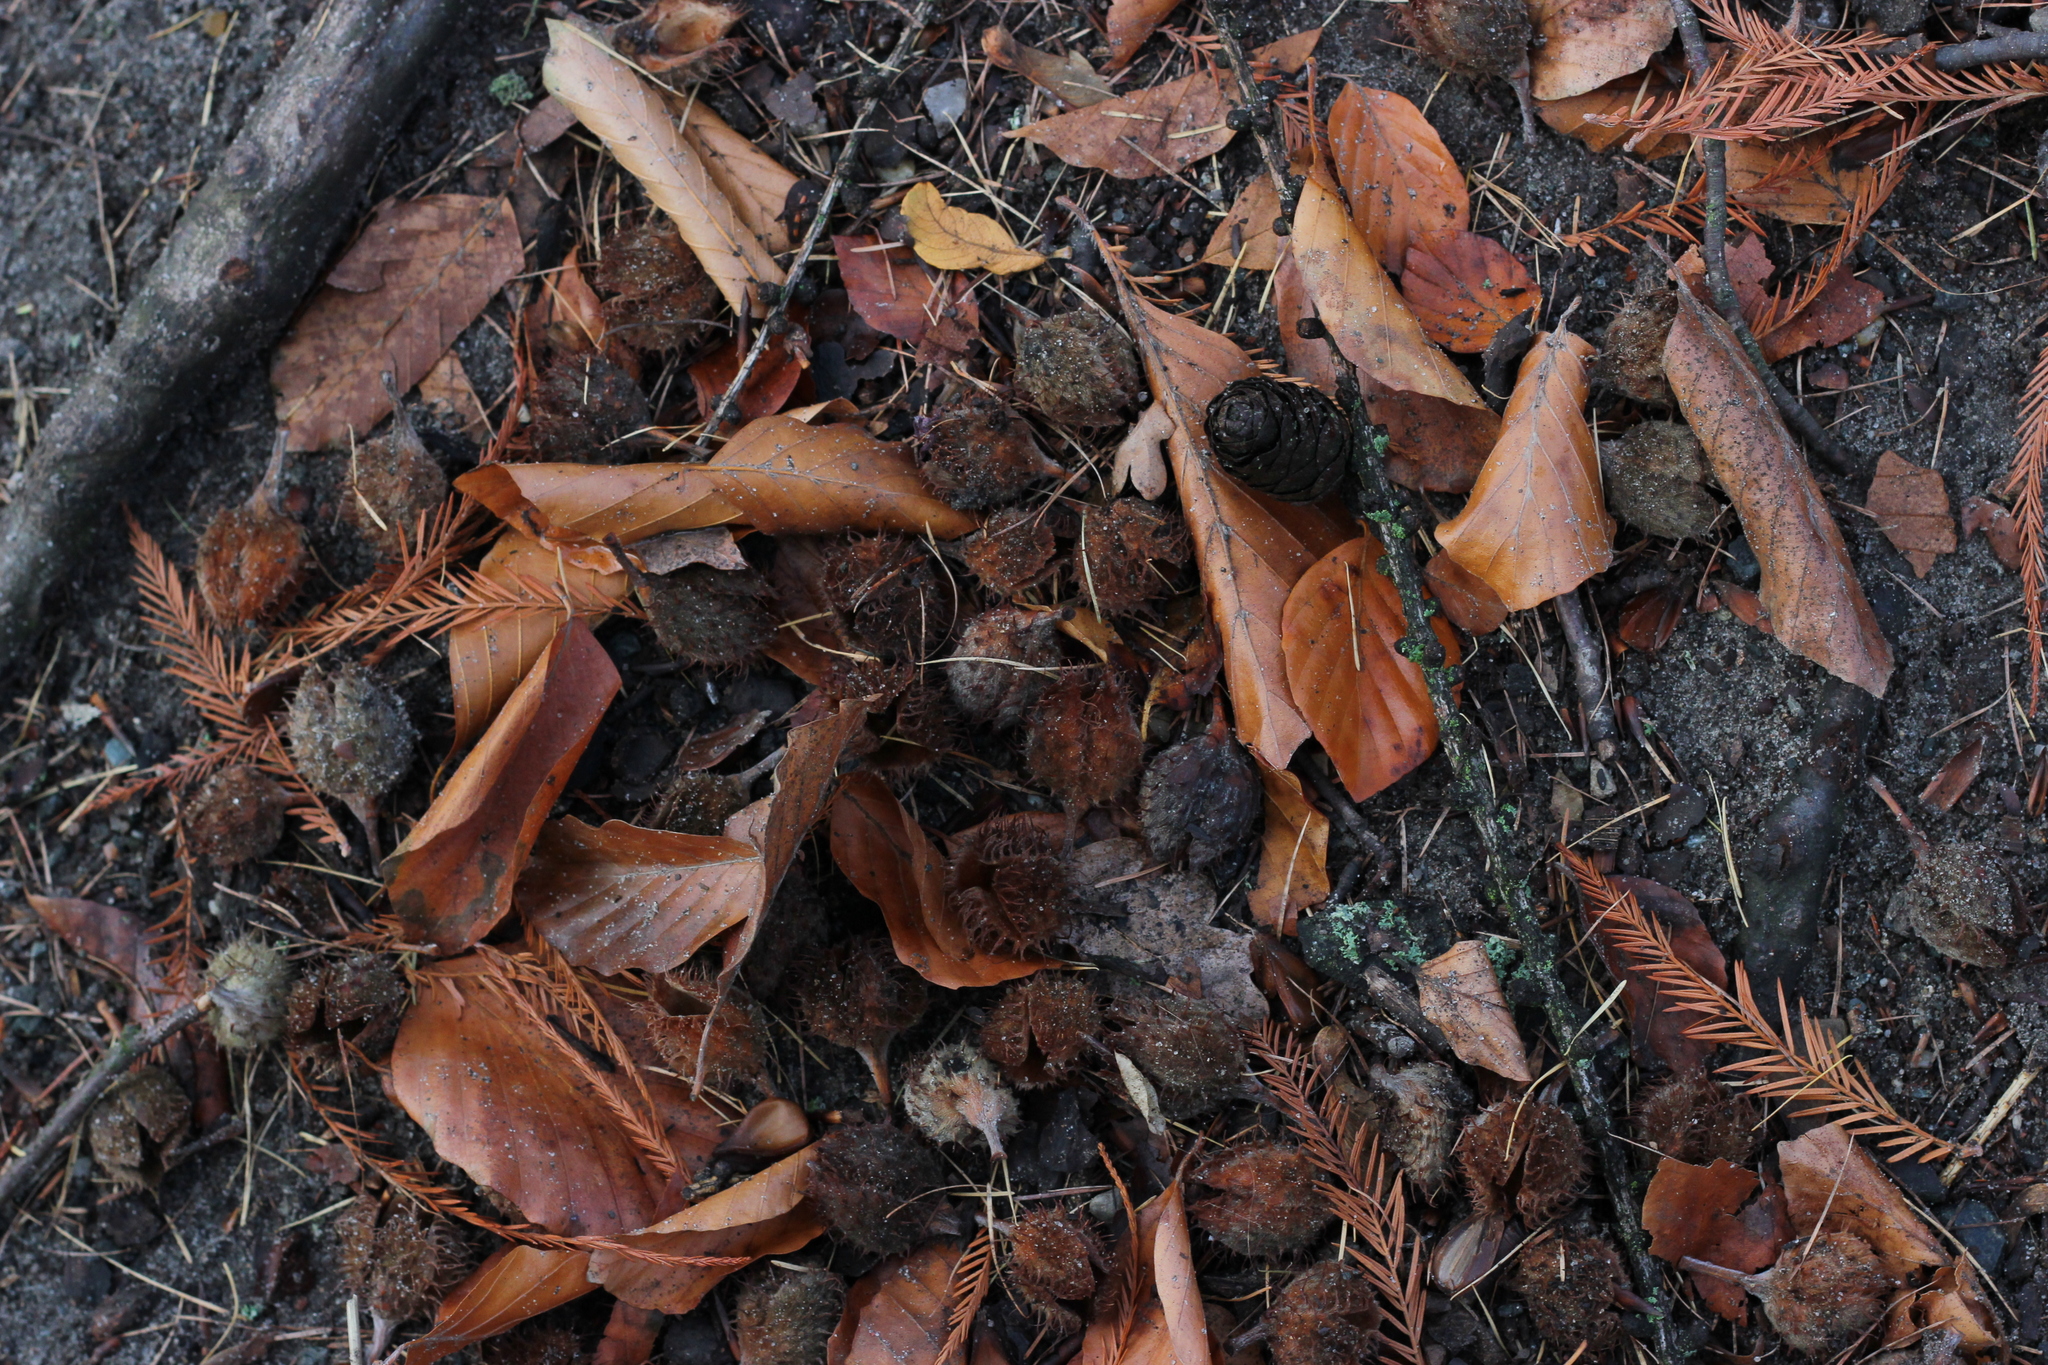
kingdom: Plantae
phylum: Tracheophyta
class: Magnoliopsida
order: Fagales
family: Fagaceae
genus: Fagus
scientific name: Fagus sylvatica
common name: Beech
